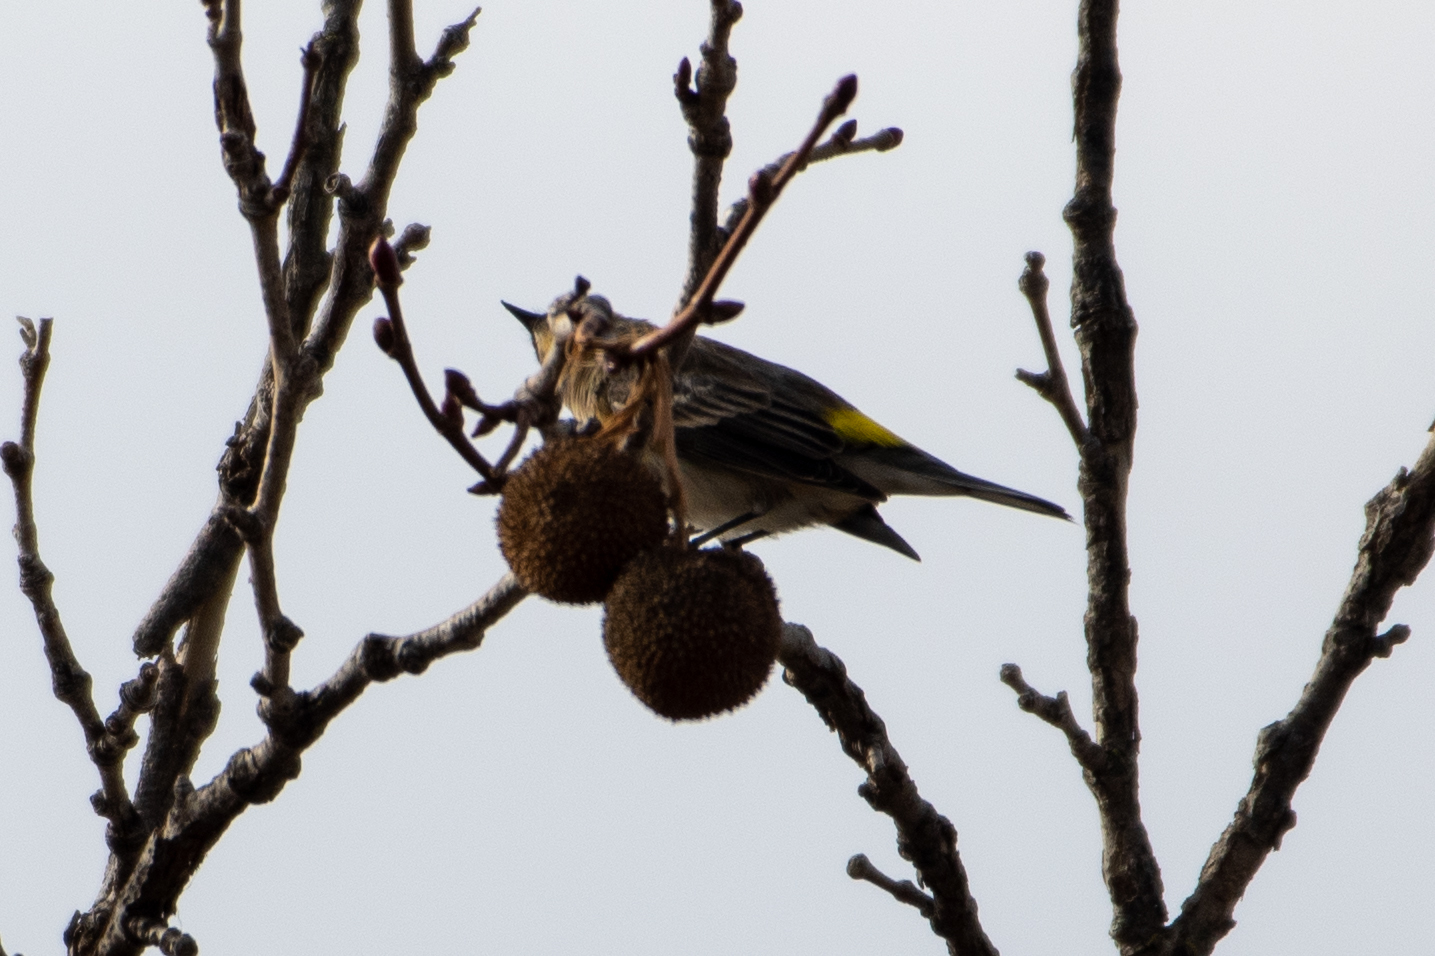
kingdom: Animalia
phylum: Chordata
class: Aves
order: Passeriformes
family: Parulidae
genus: Setophaga
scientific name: Setophaga coronata
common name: Myrtle warbler
